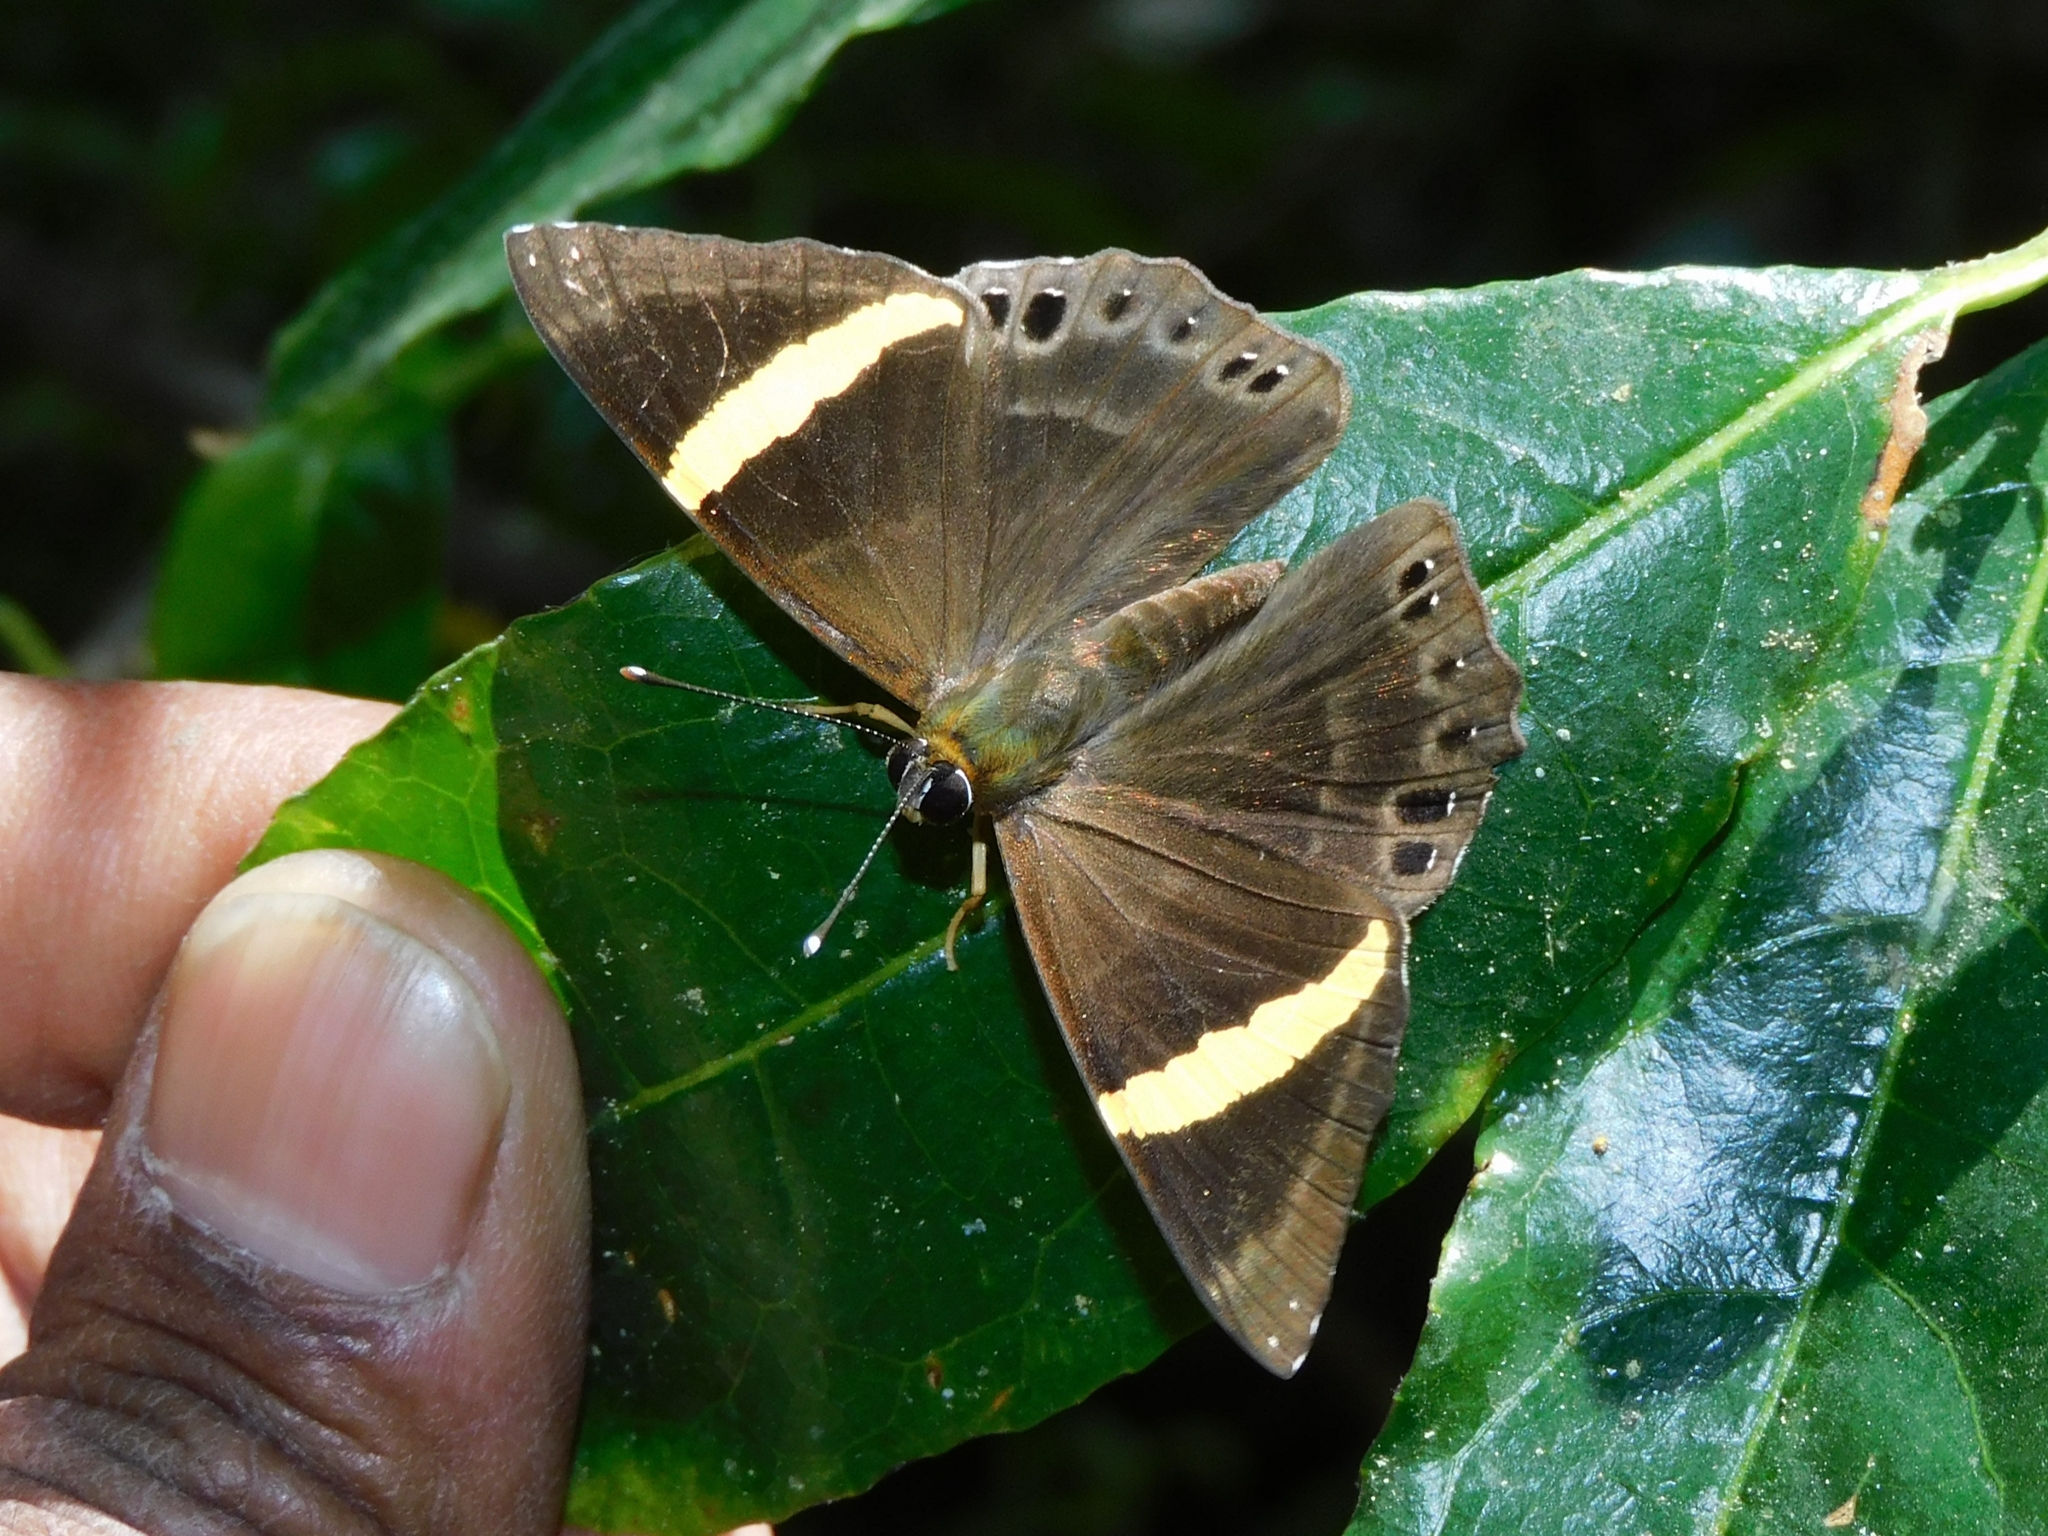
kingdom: Animalia
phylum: Arthropoda
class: Insecta
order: Lepidoptera
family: Lycaenidae
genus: Abisara
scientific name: Abisara fylla
